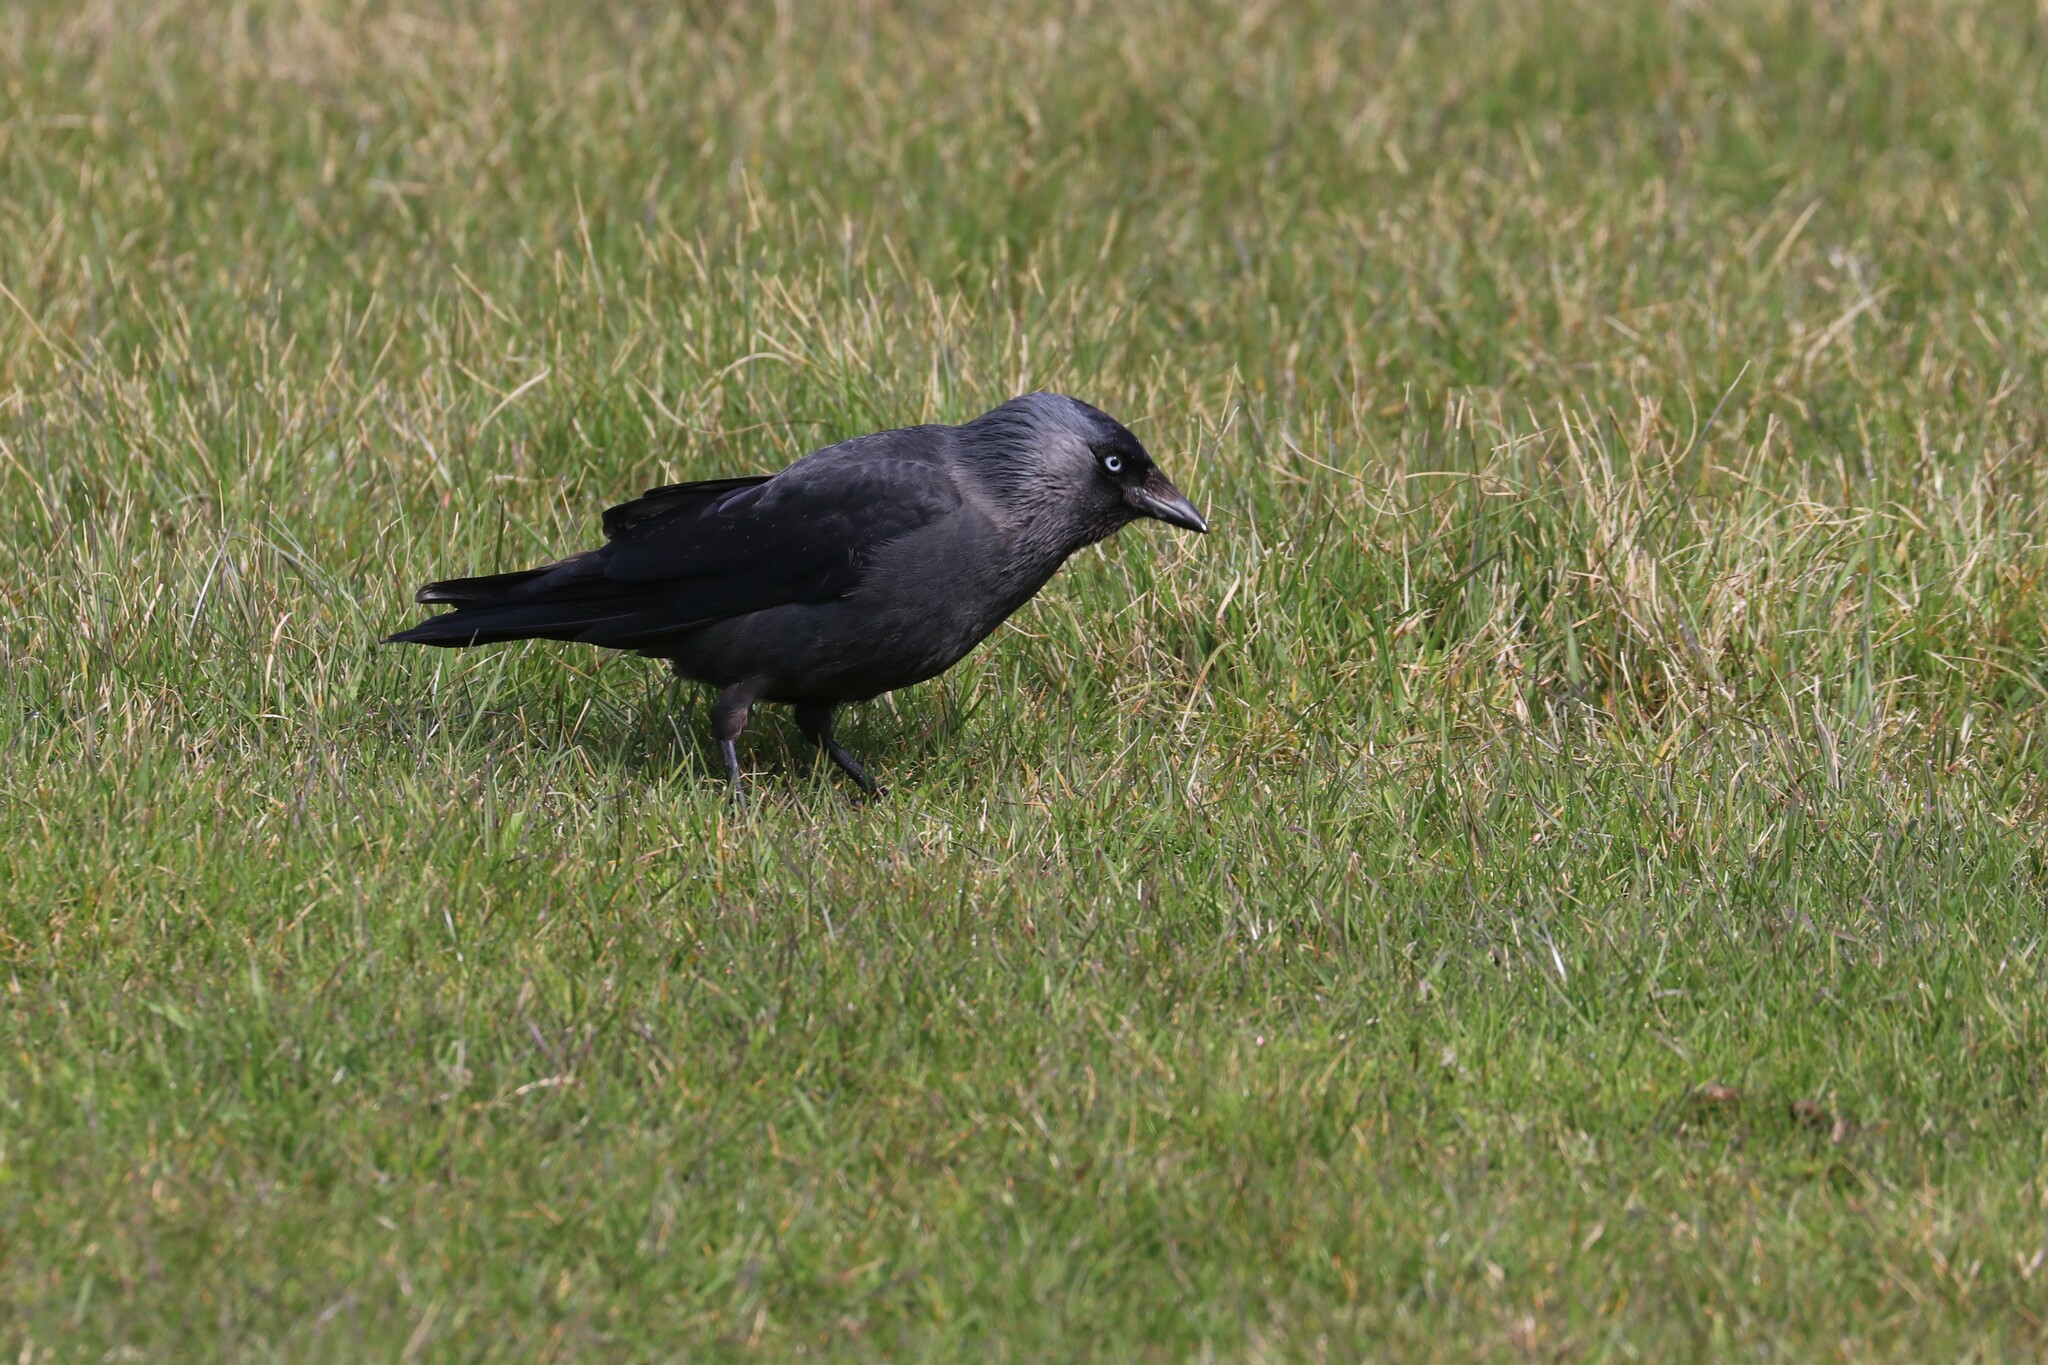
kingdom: Animalia
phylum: Chordata
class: Aves
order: Passeriformes
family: Corvidae
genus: Coloeus
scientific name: Coloeus monedula
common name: Western jackdaw
